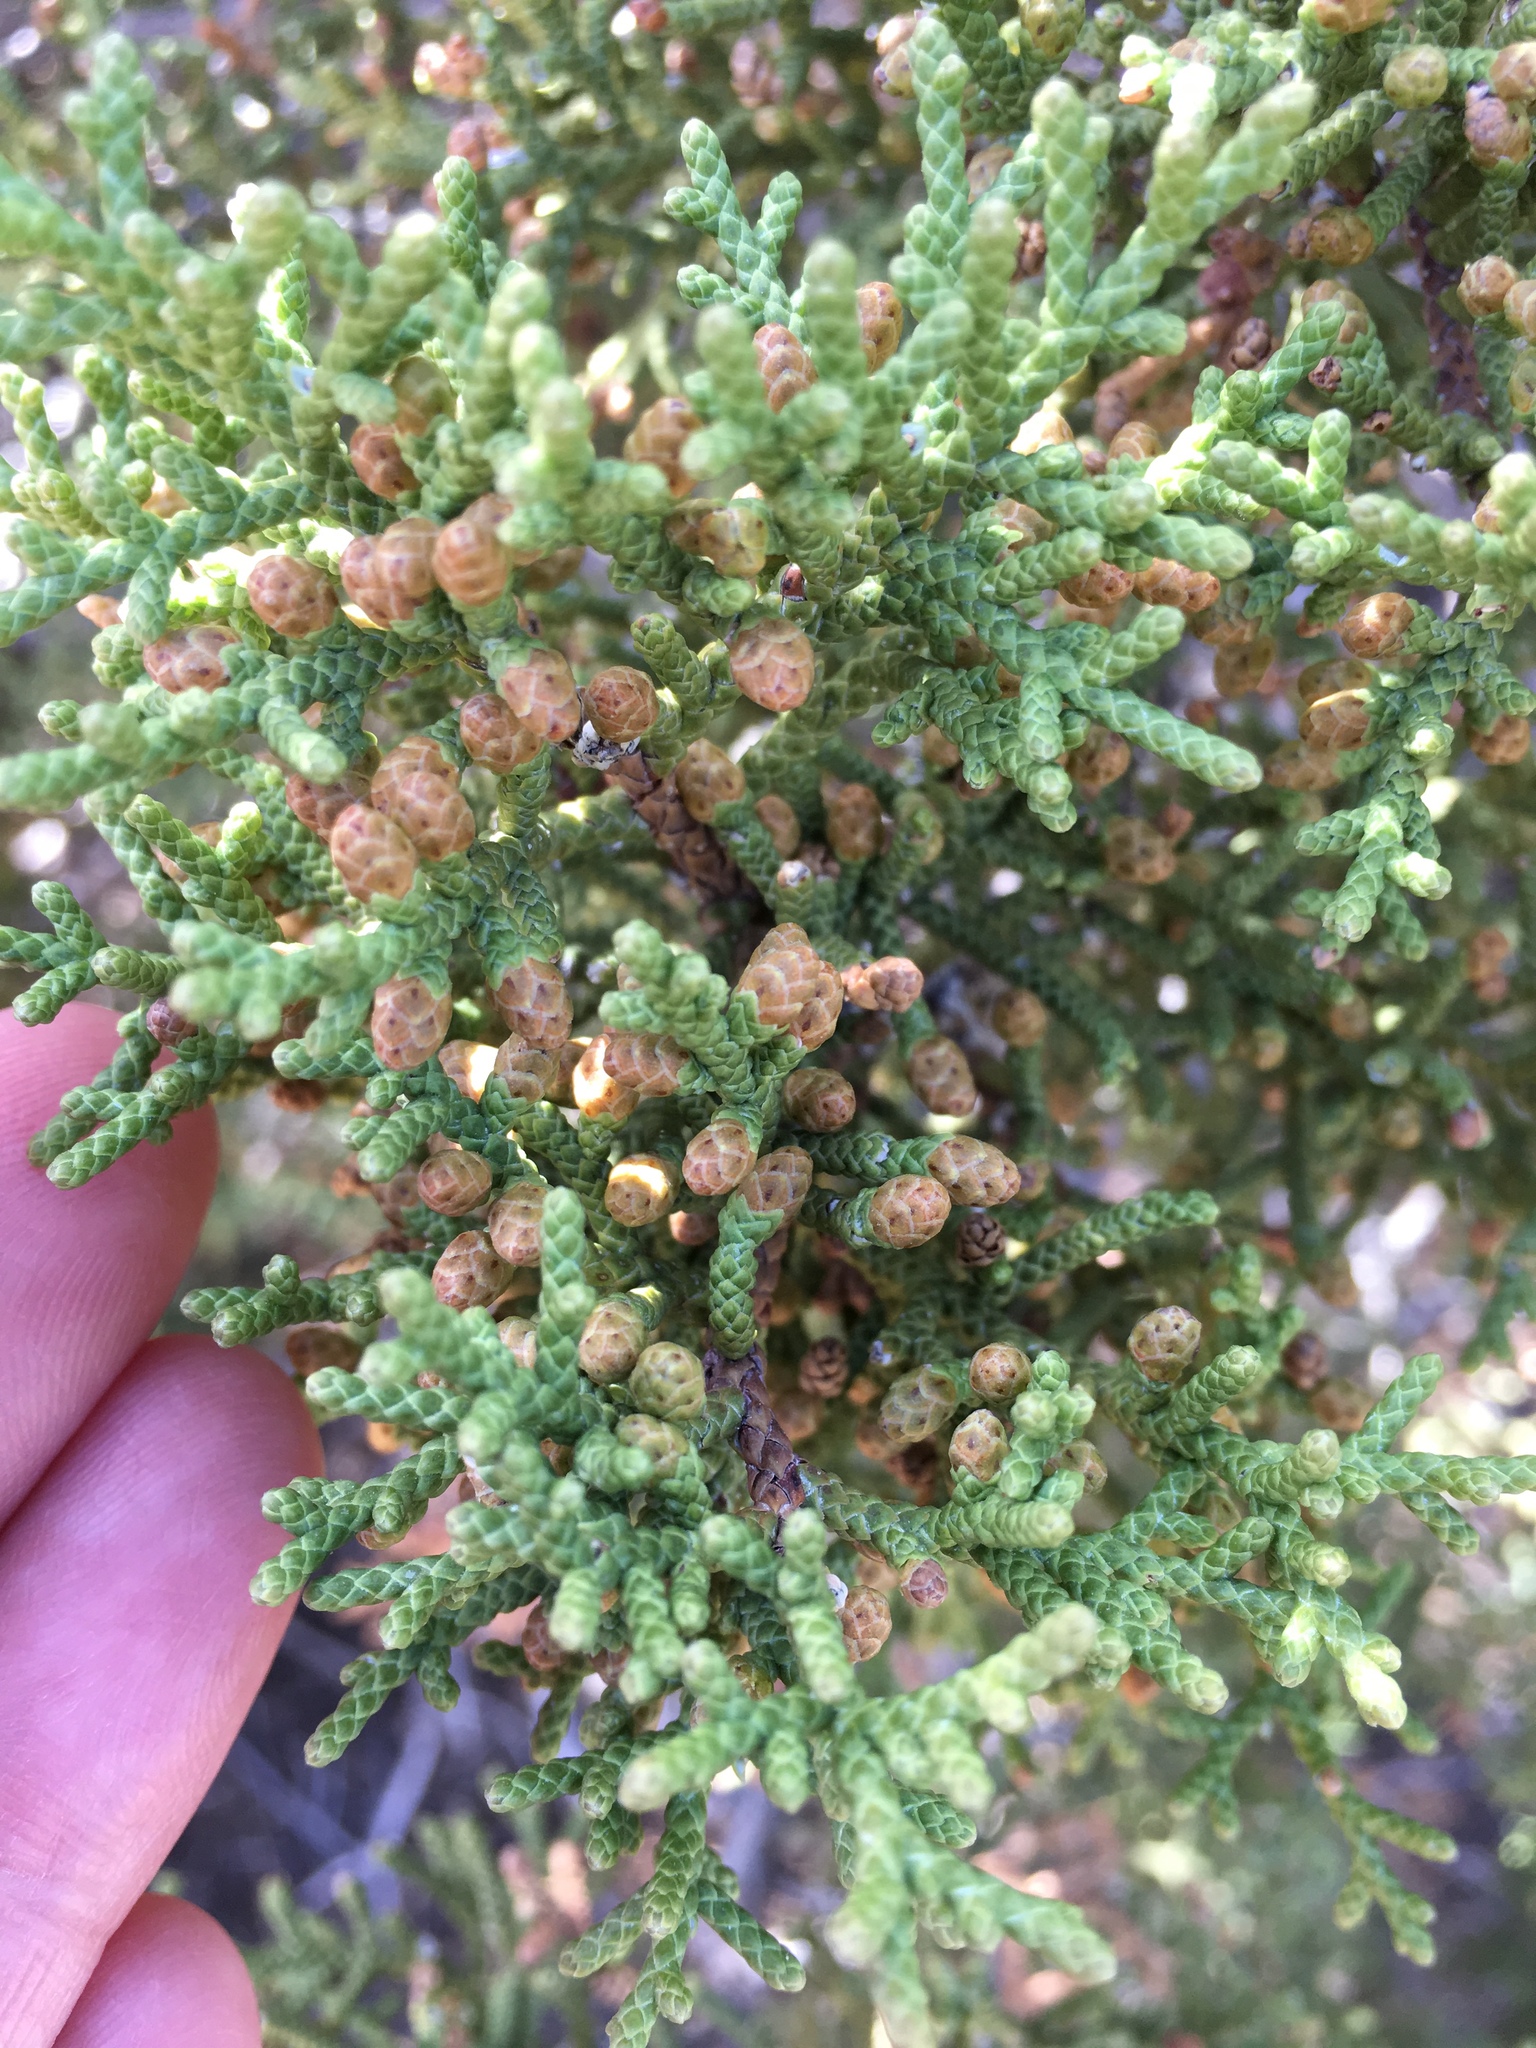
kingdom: Plantae
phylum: Tracheophyta
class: Pinopsida
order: Pinales
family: Cupressaceae
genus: Juniperus
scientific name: Juniperus californica
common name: California juniper
